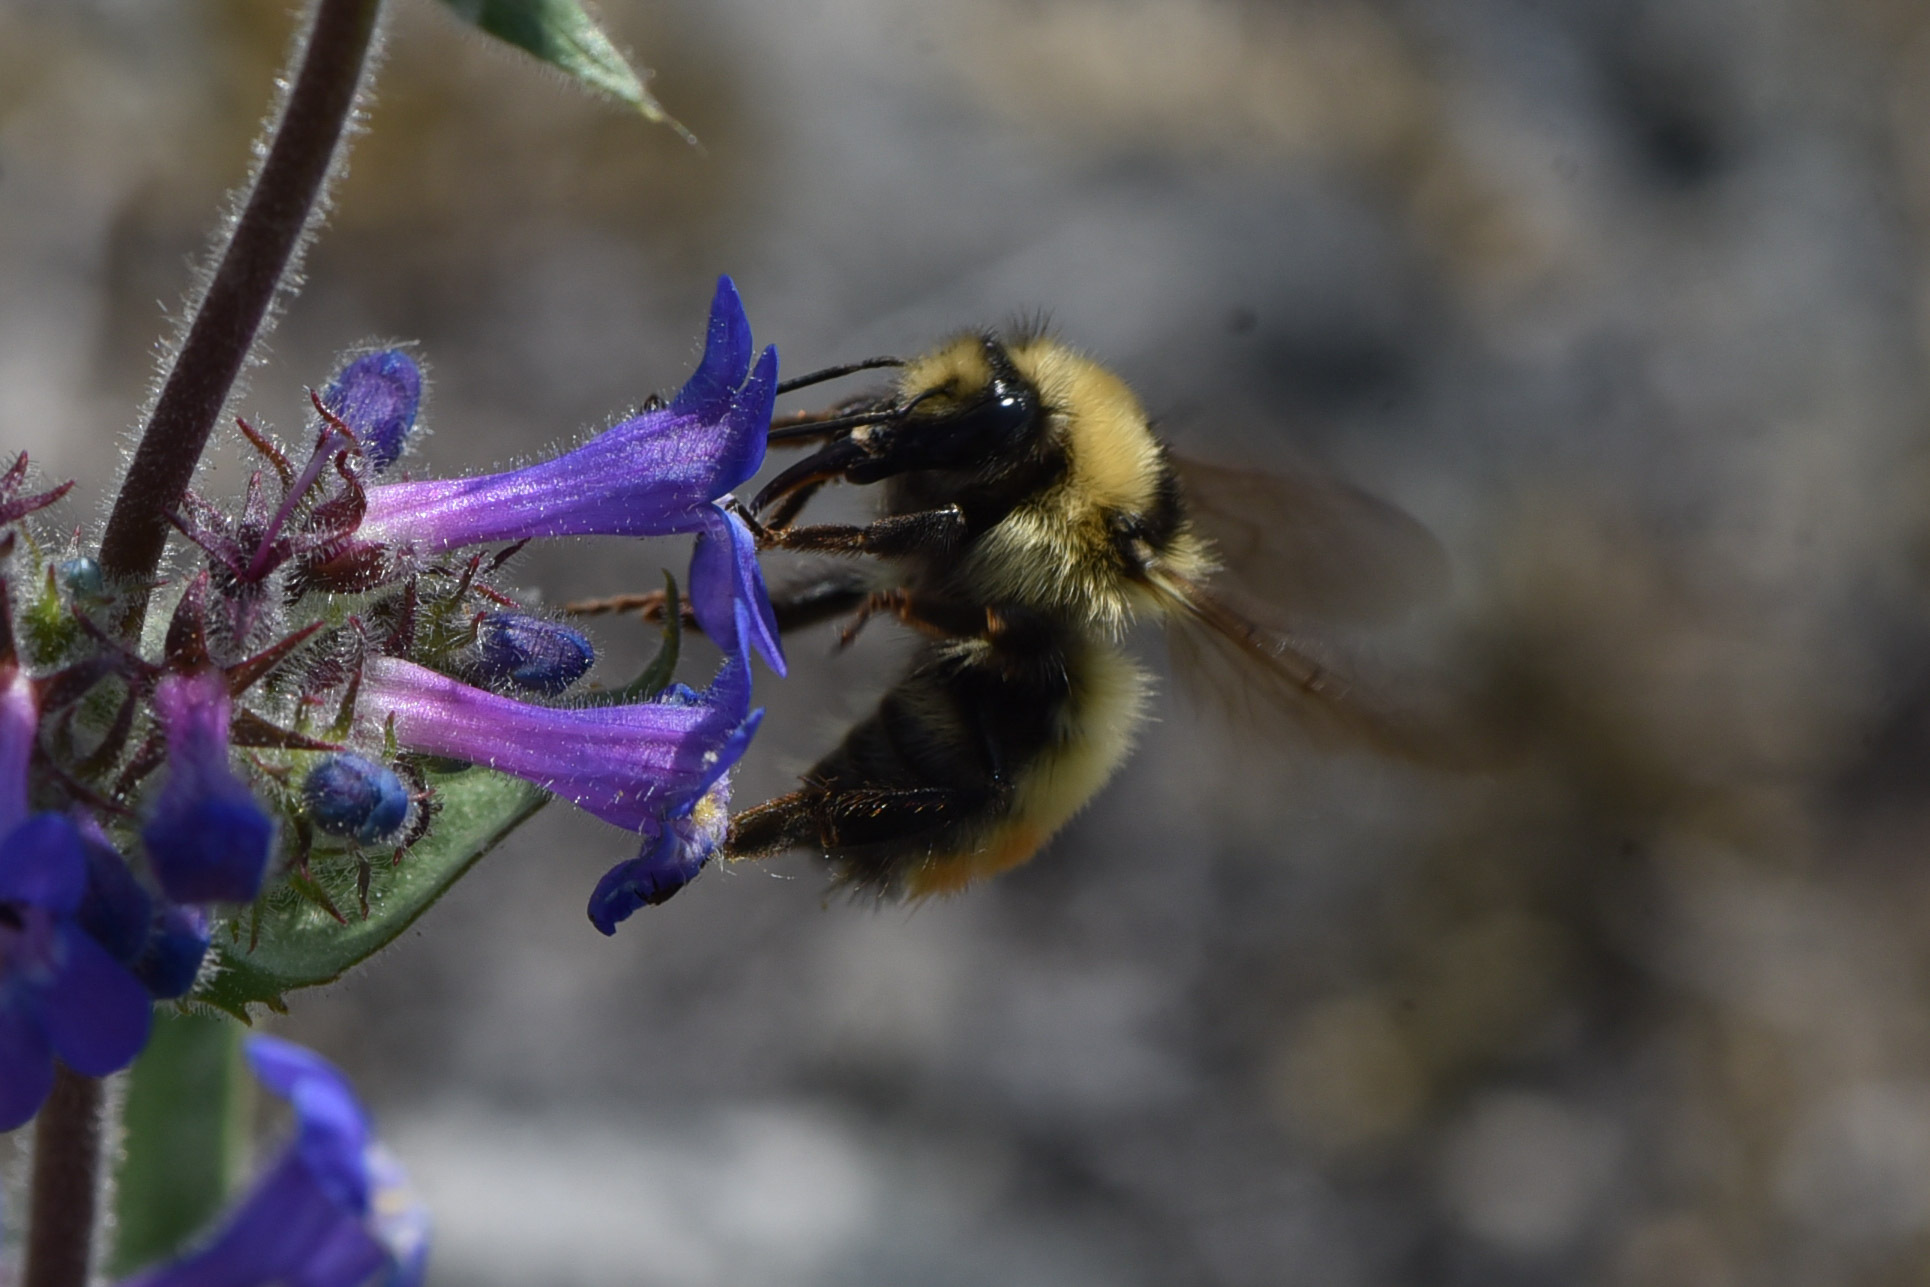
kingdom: Animalia
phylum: Arthropoda
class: Insecta
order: Hymenoptera
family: Apidae
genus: Bombus
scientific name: Bombus centralis
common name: Central bumble bee
